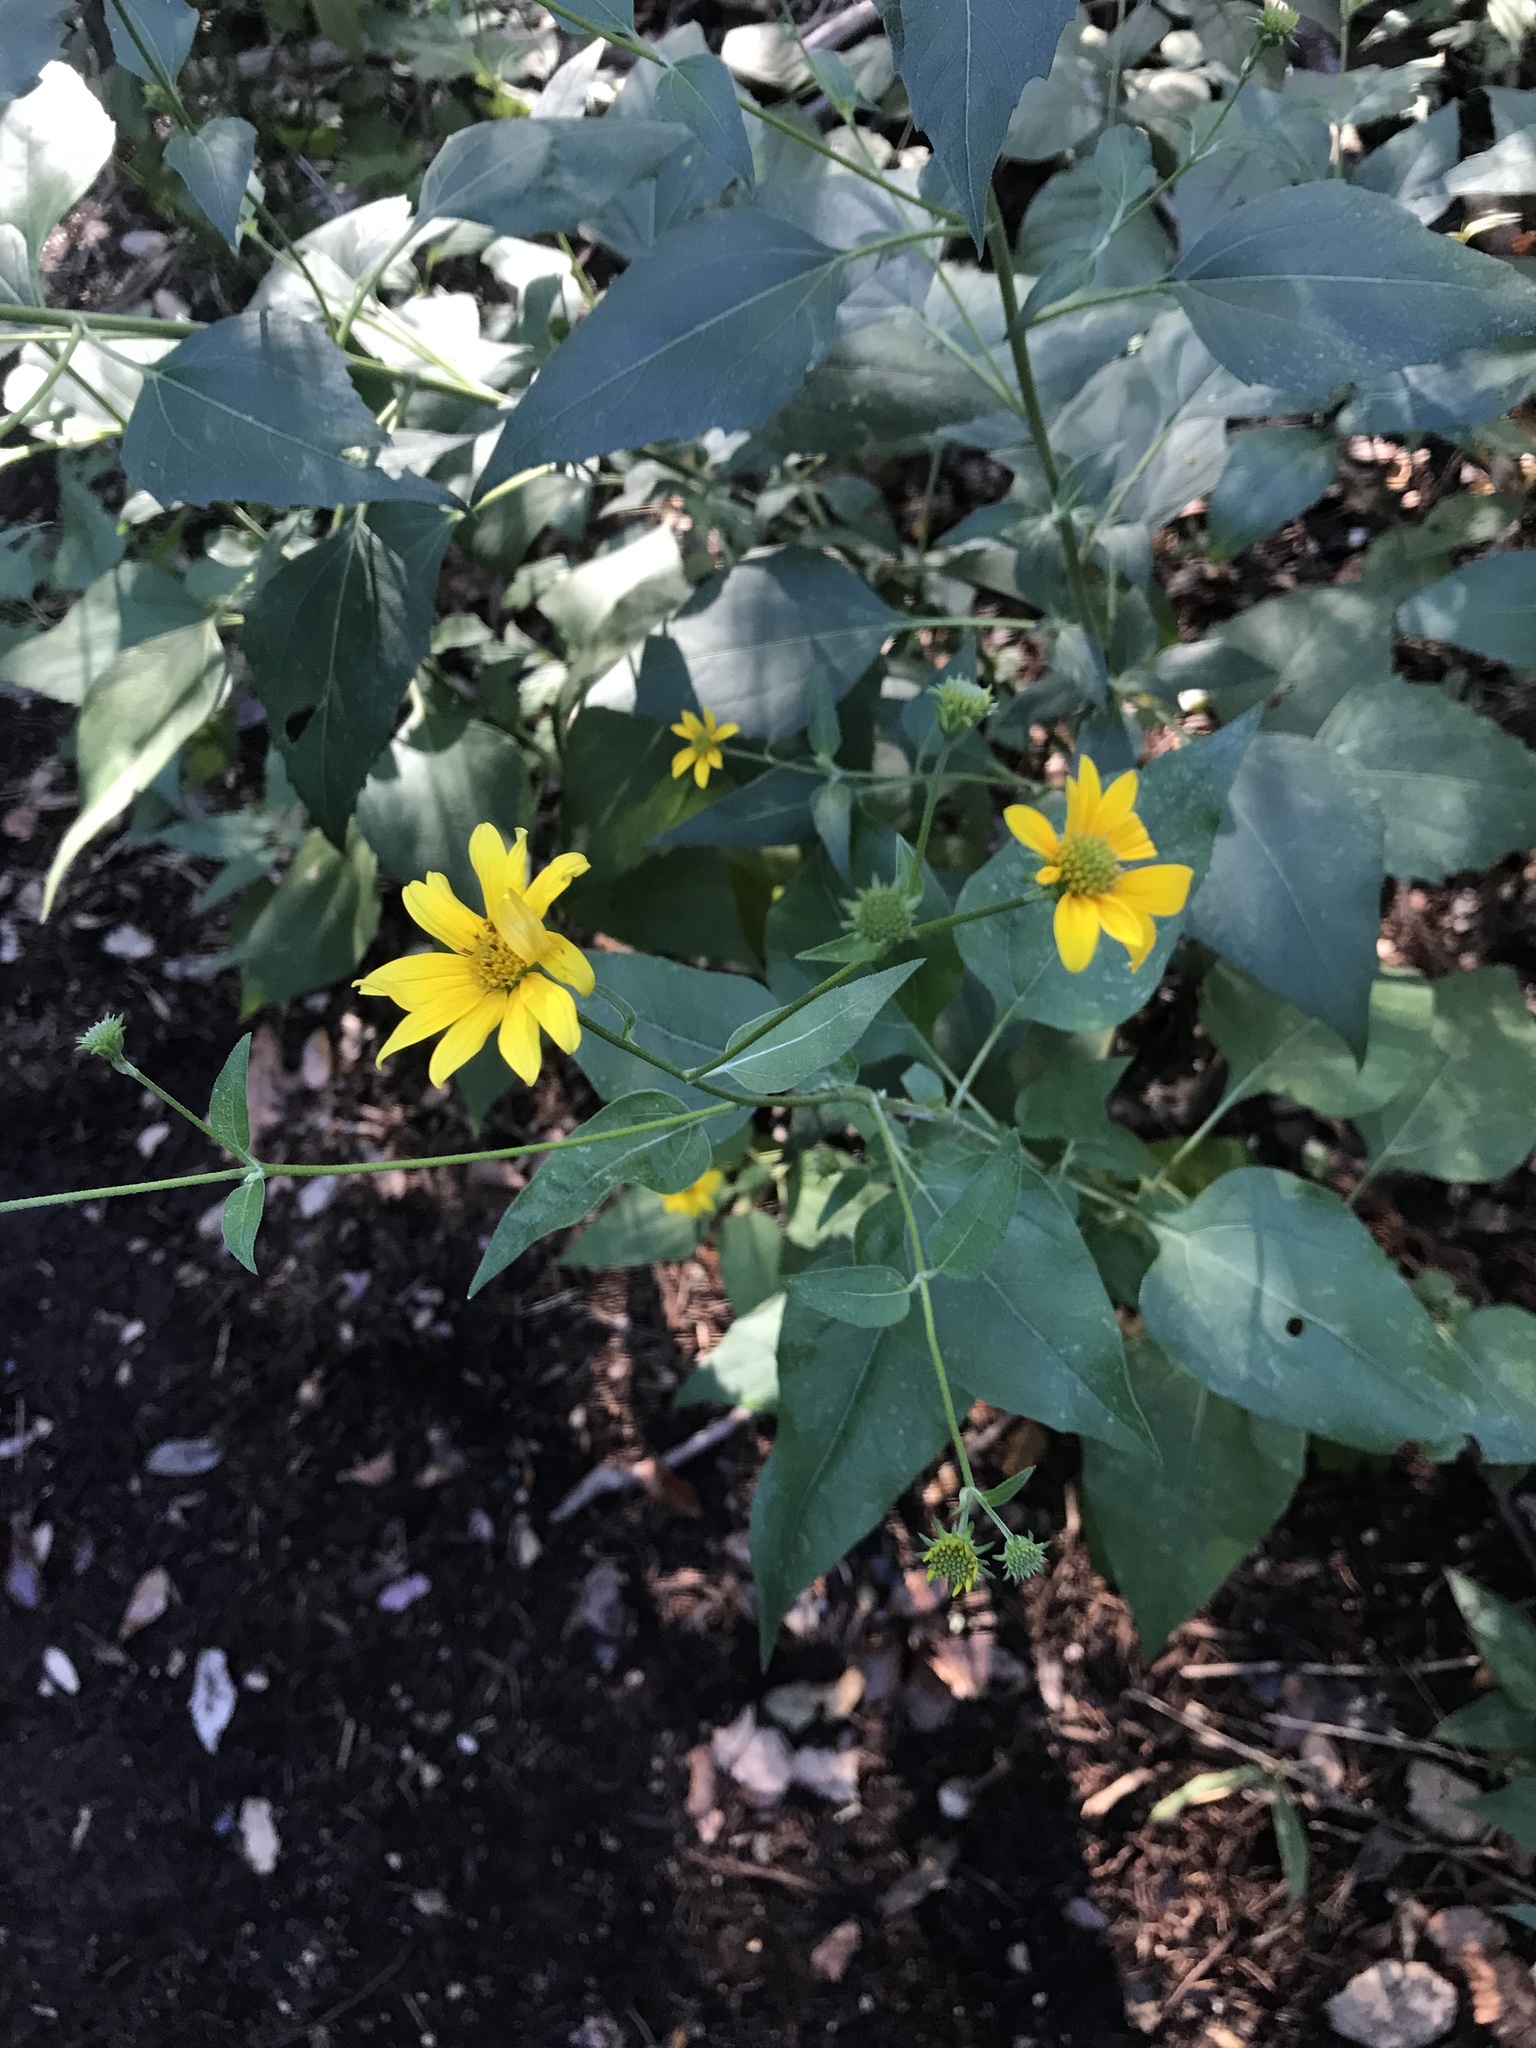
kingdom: Plantae
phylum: Tracheophyta
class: Magnoliopsida
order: Asterales
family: Asteraceae
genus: Viguiera
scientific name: Viguiera dentata
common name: Toothleaf
